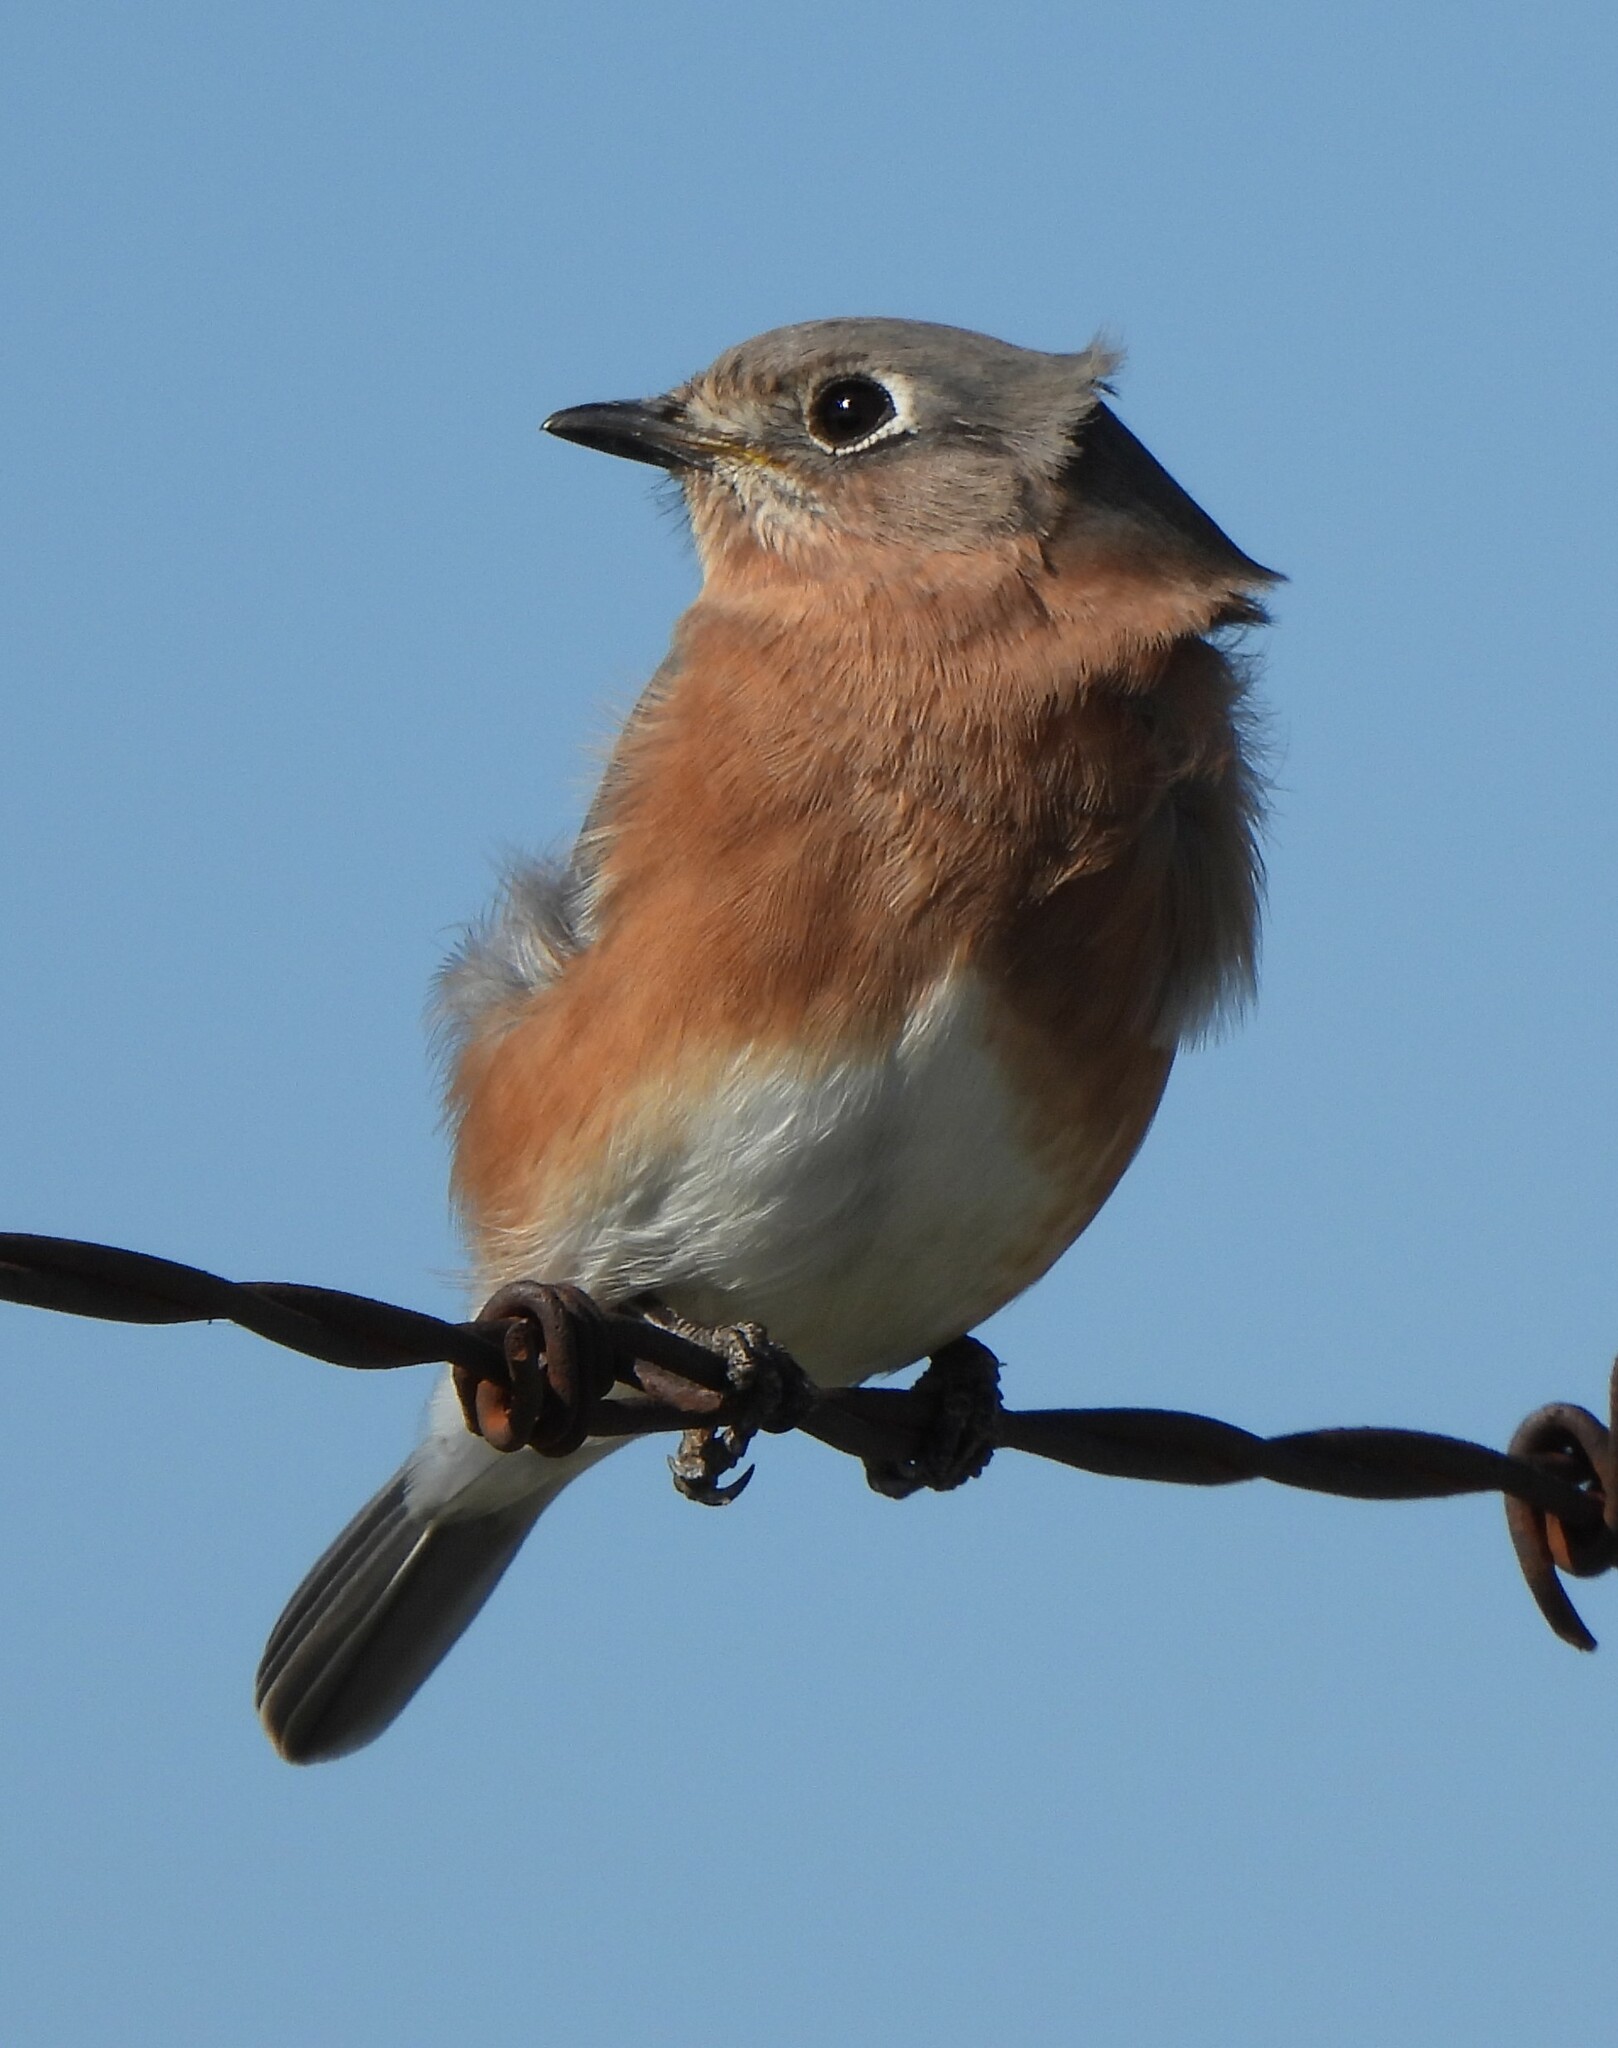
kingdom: Animalia
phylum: Chordata
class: Aves
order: Passeriformes
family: Turdidae
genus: Sialia
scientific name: Sialia sialis
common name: Eastern bluebird
